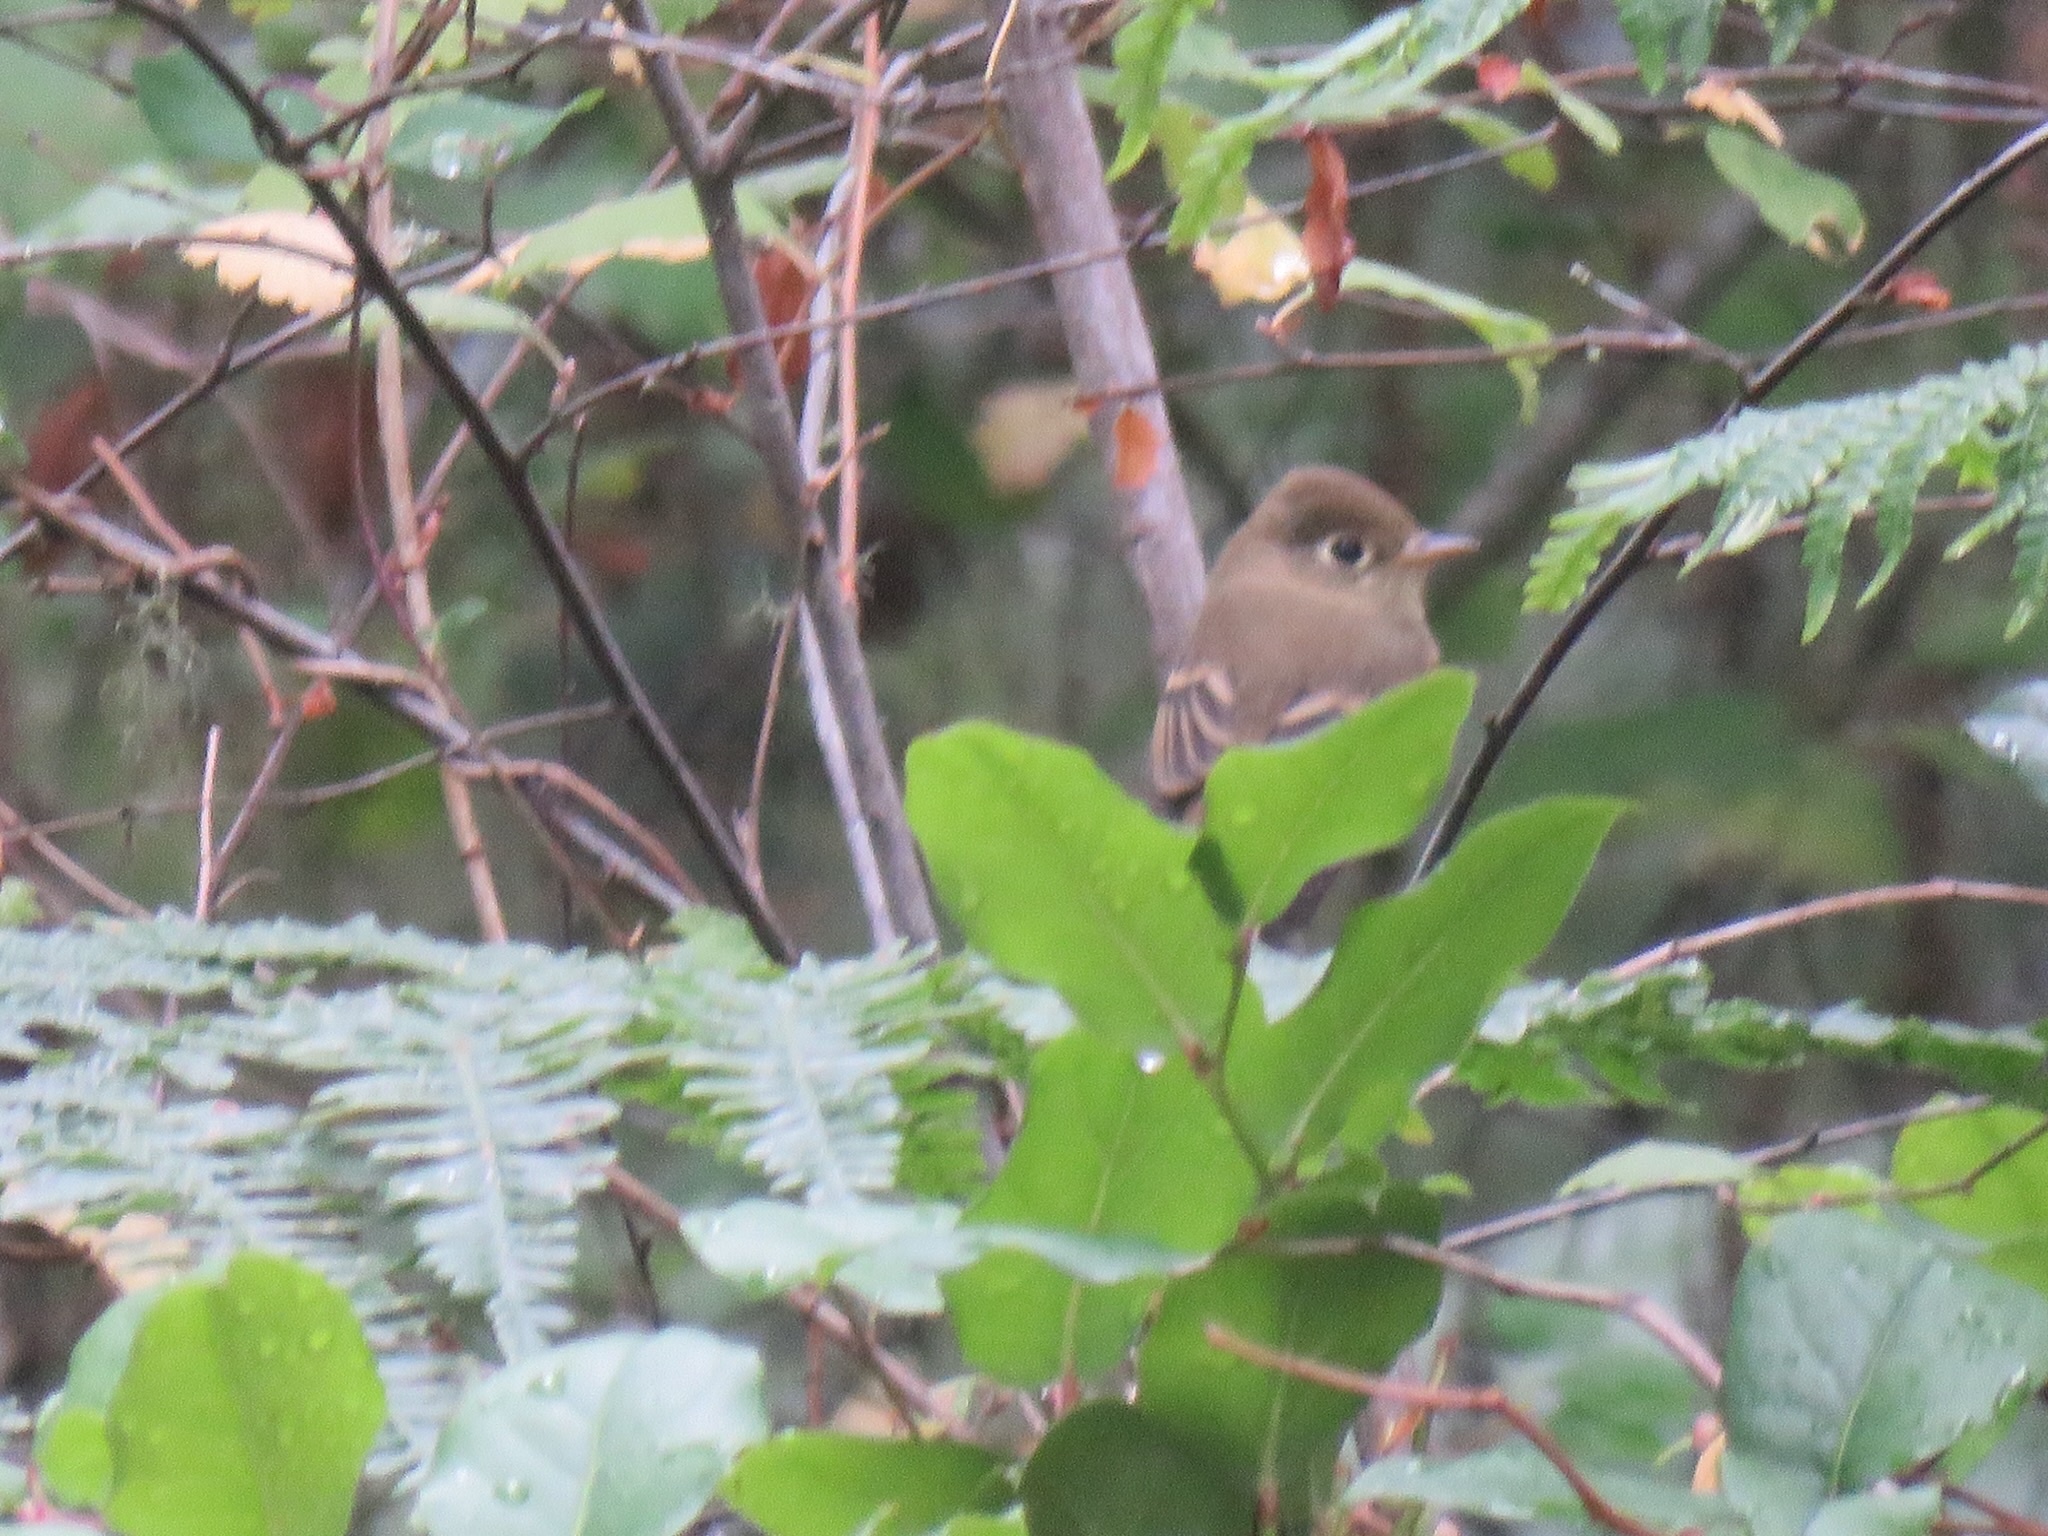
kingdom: Animalia
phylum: Chordata
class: Aves
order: Passeriformes
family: Tyrannidae
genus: Empidonax
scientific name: Empidonax difficilis
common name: Pacific-slope flycatcher
